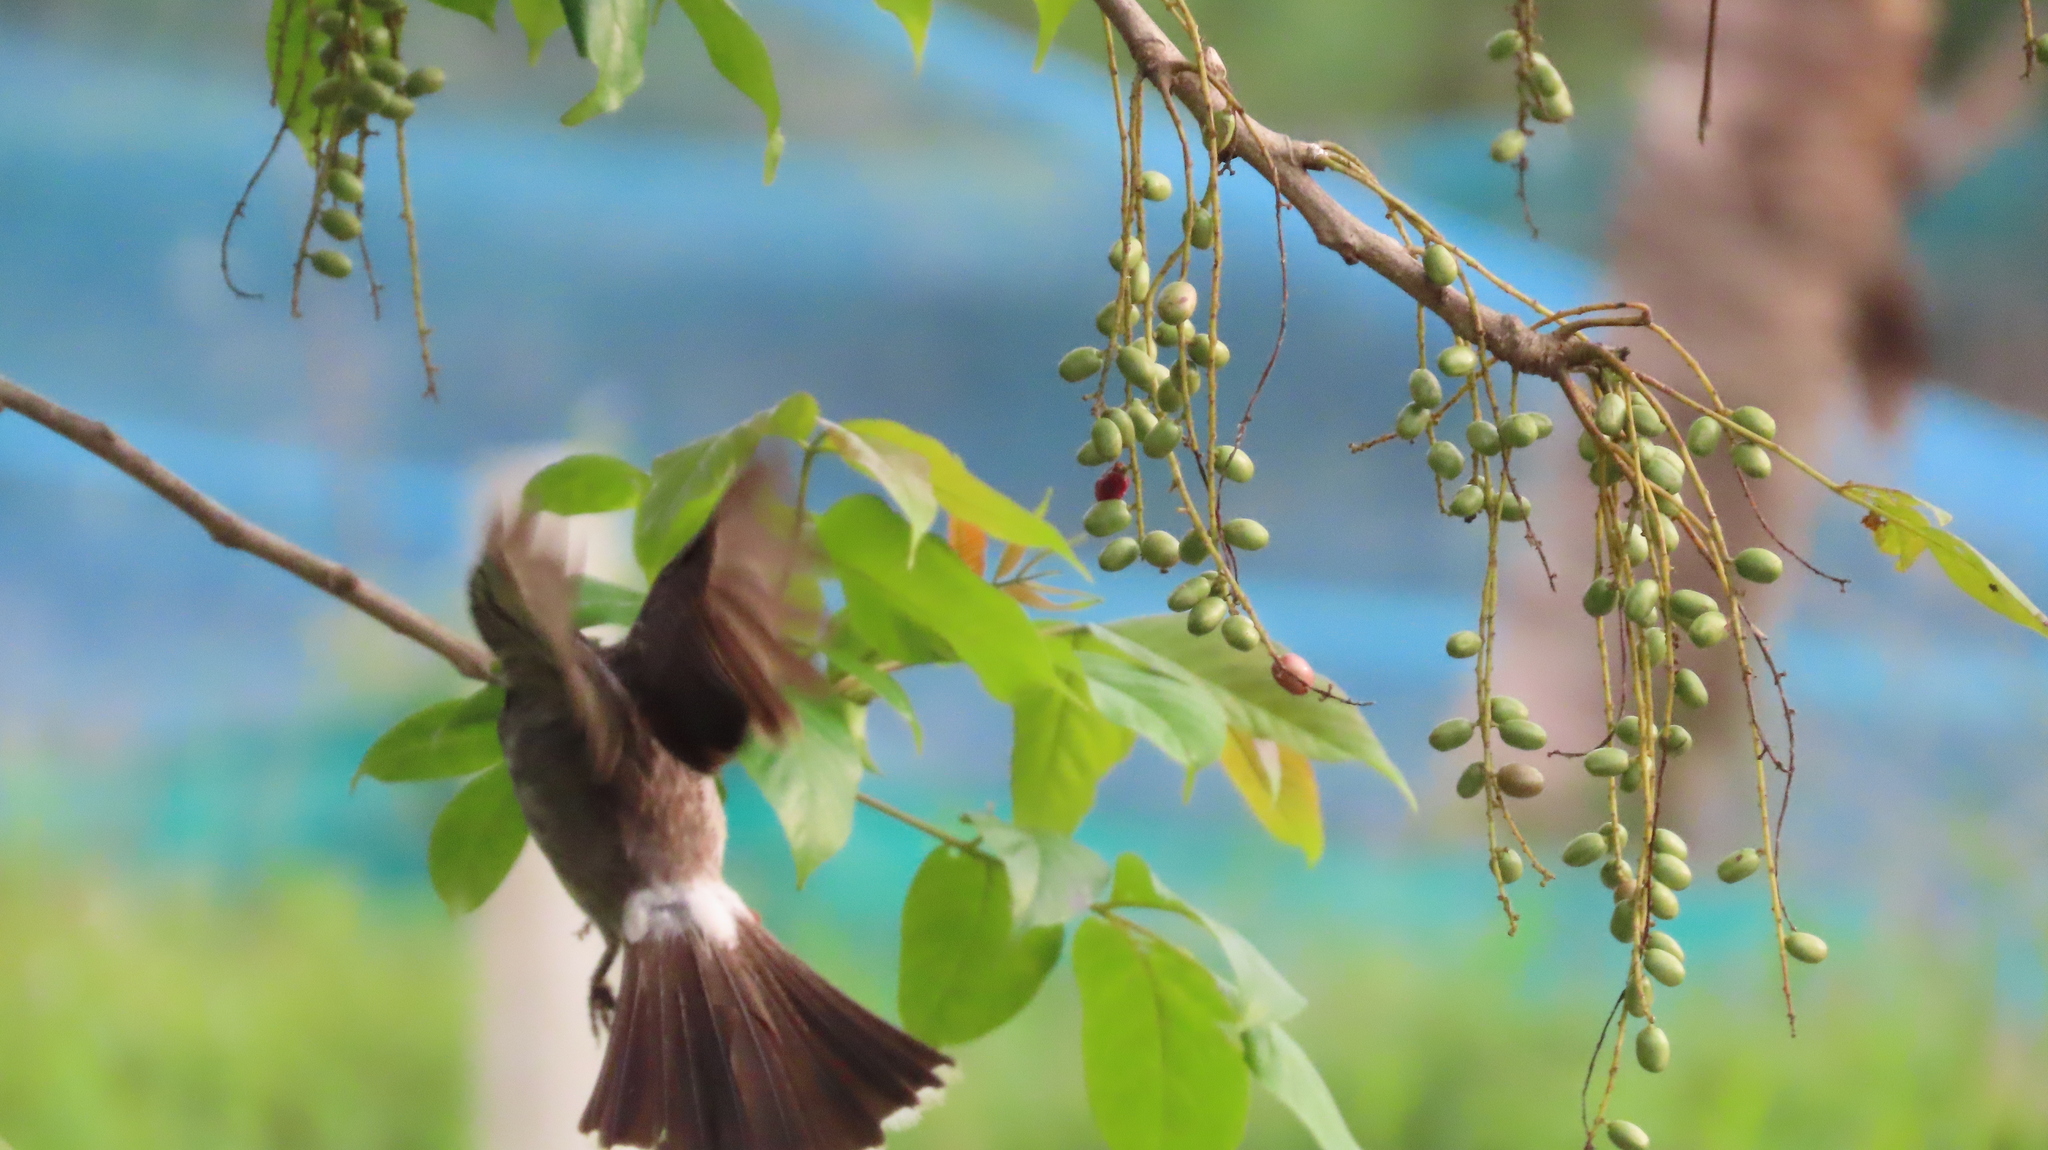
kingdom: Animalia
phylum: Chordata
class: Aves
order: Passeriformes
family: Pycnonotidae
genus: Pycnonotus
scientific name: Pycnonotus cafer
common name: Red-vented bulbul
